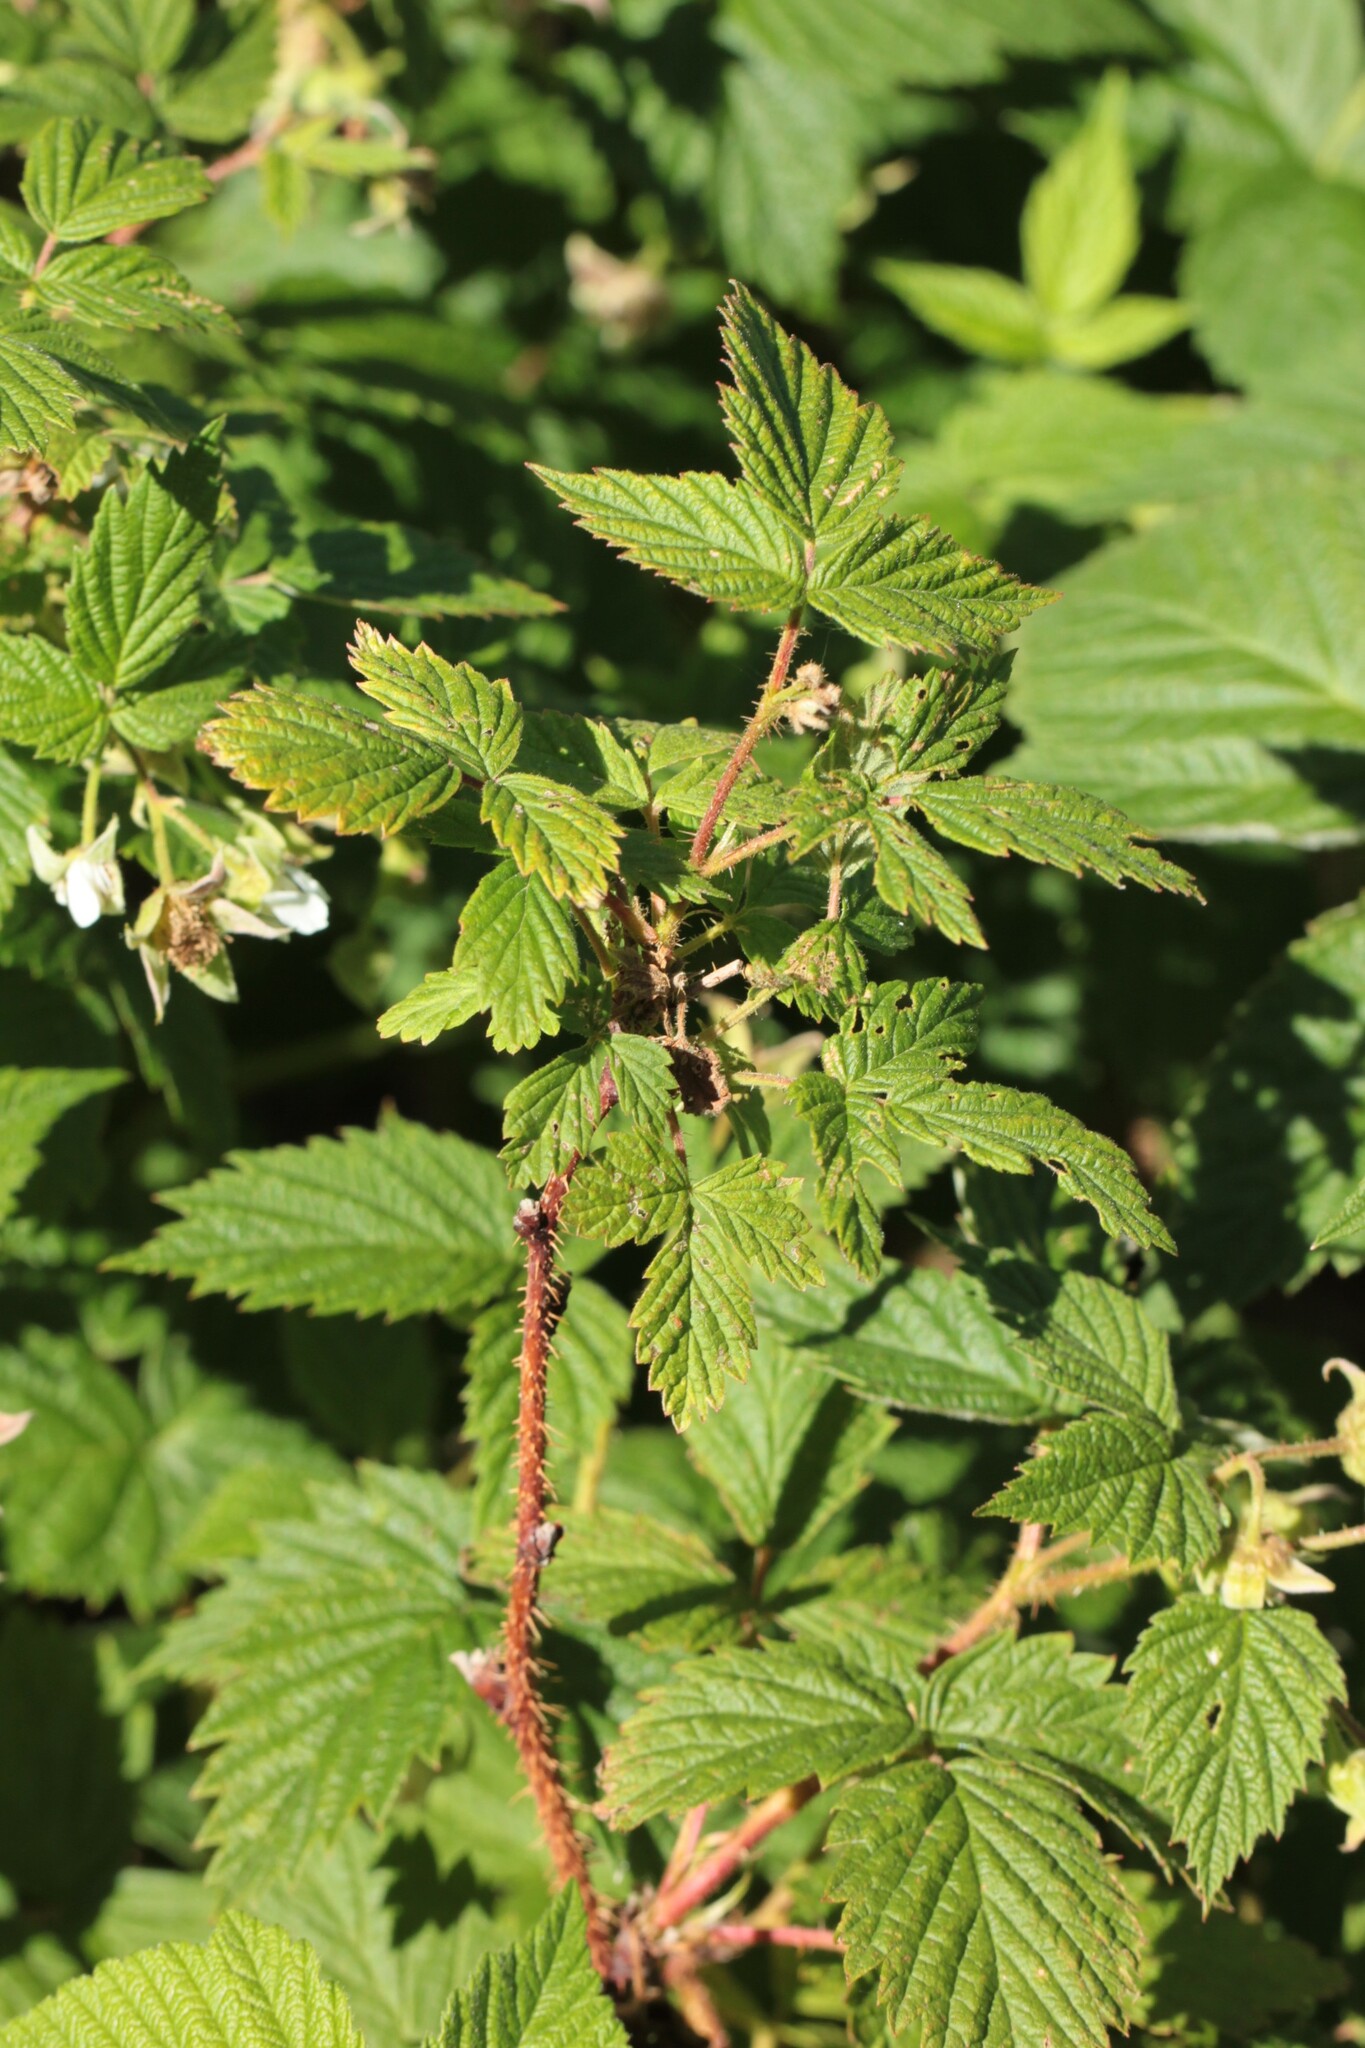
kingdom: Plantae
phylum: Tracheophyta
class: Magnoliopsida
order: Rosales
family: Rosaceae
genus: Rubus
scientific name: Rubus idaeus
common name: Raspberry
